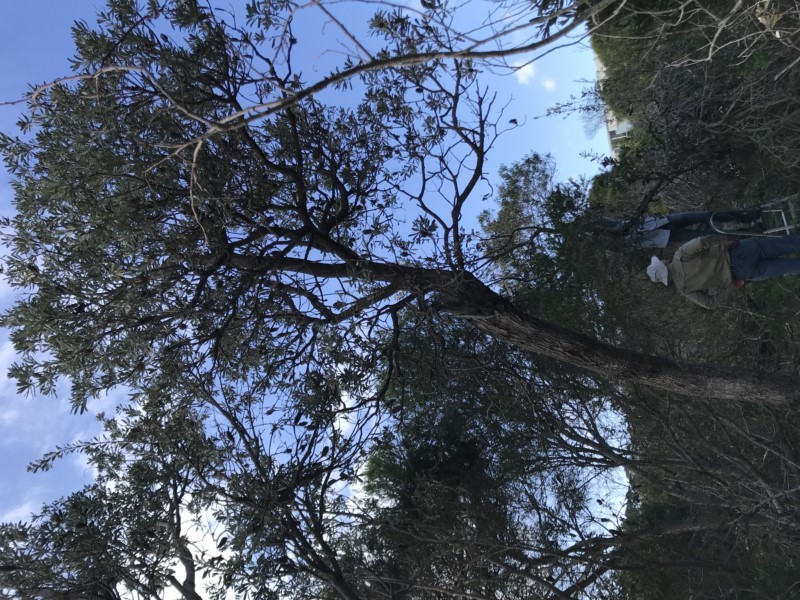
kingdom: Plantae
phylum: Tracheophyta
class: Magnoliopsida
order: Proteales
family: Proteaceae
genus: Banksia
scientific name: Banksia integrifolia
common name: White-honeysuckle
